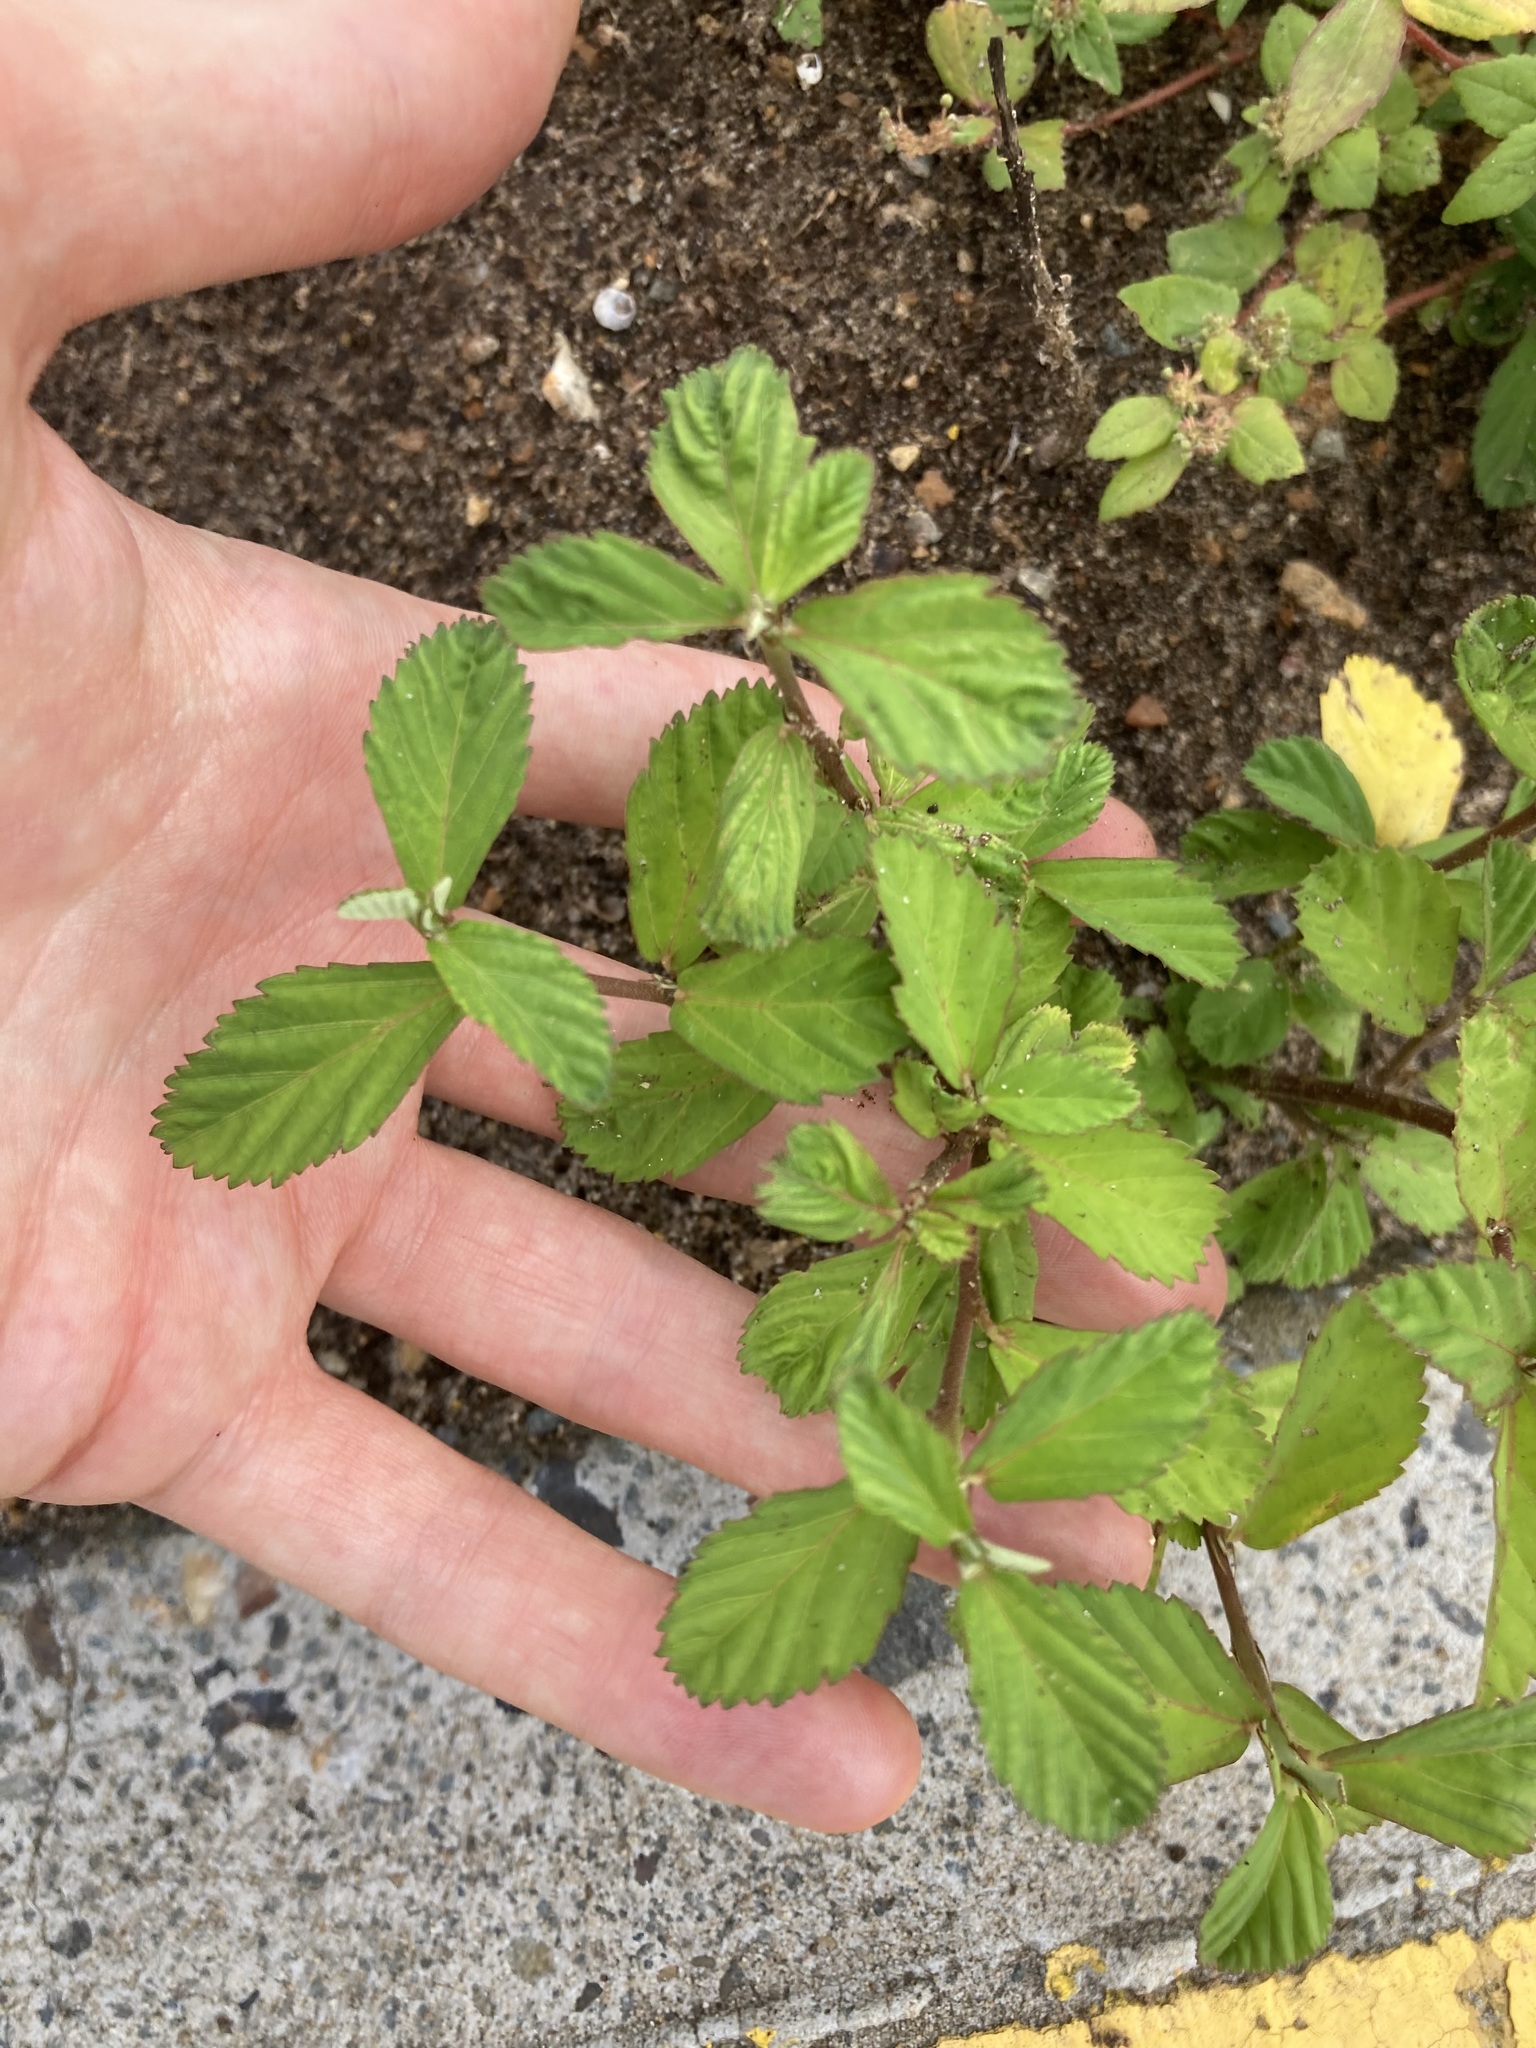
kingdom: Plantae
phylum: Tracheophyta
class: Magnoliopsida
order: Malvales
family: Malvaceae
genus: Sida
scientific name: Sida rhombifolia
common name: Queensland-hemp
